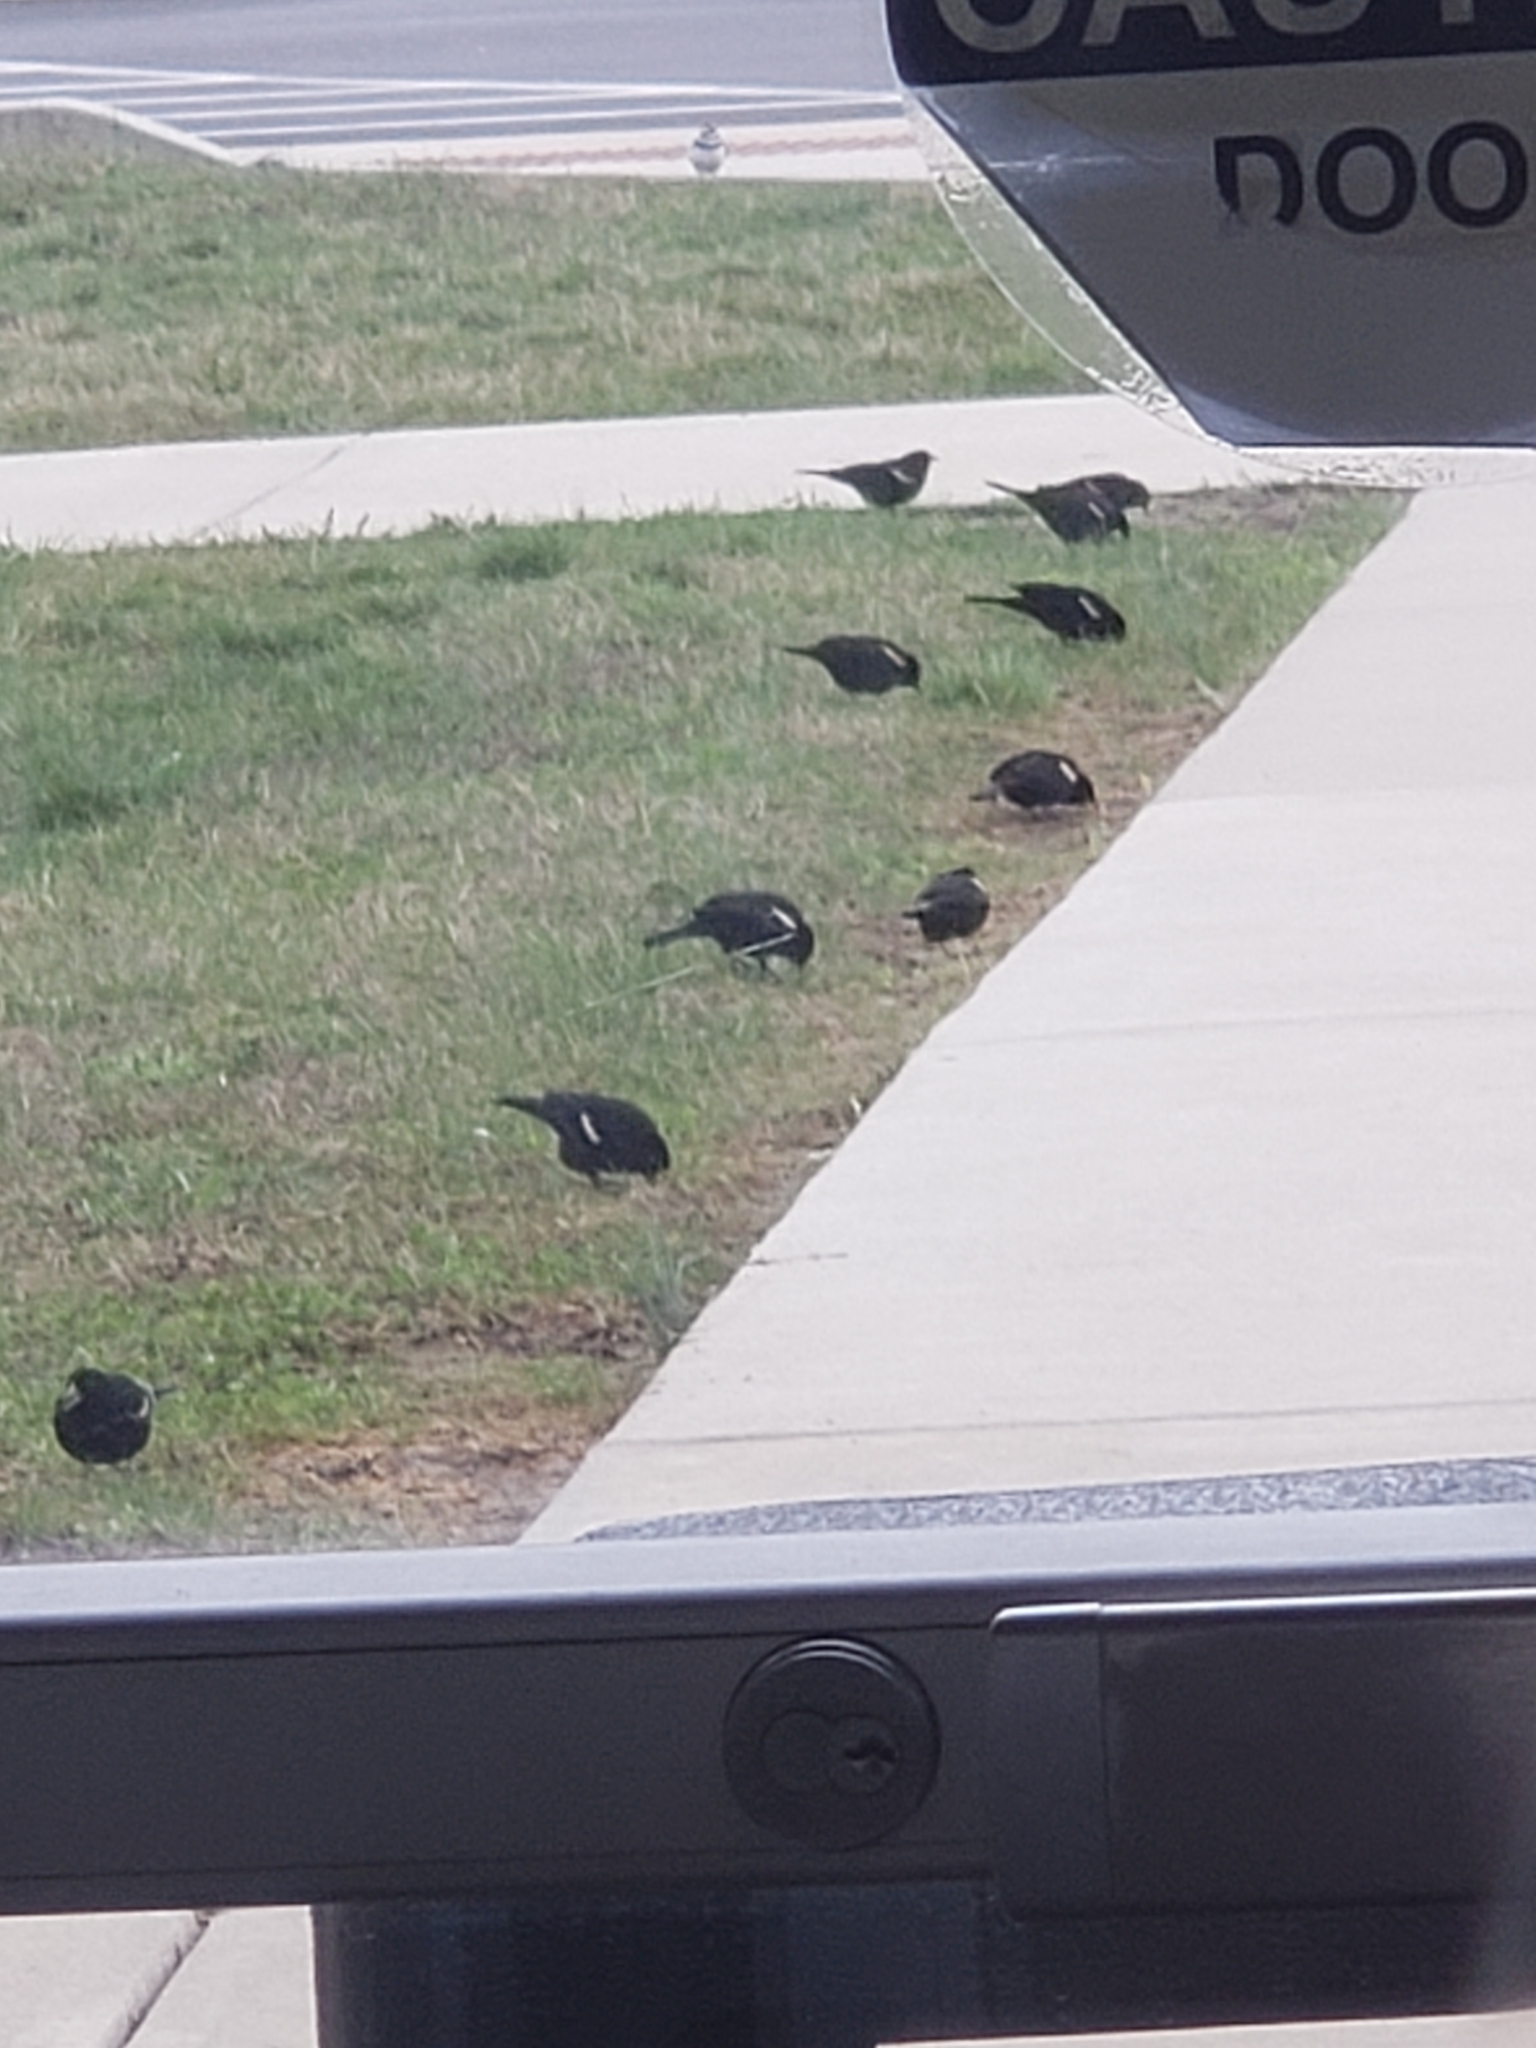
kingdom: Animalia
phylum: Chordata
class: Aves
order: Passeriformes
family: Icteridae
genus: Agelaius
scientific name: Agelaius phoeniceus
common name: Red-winged blackbird
